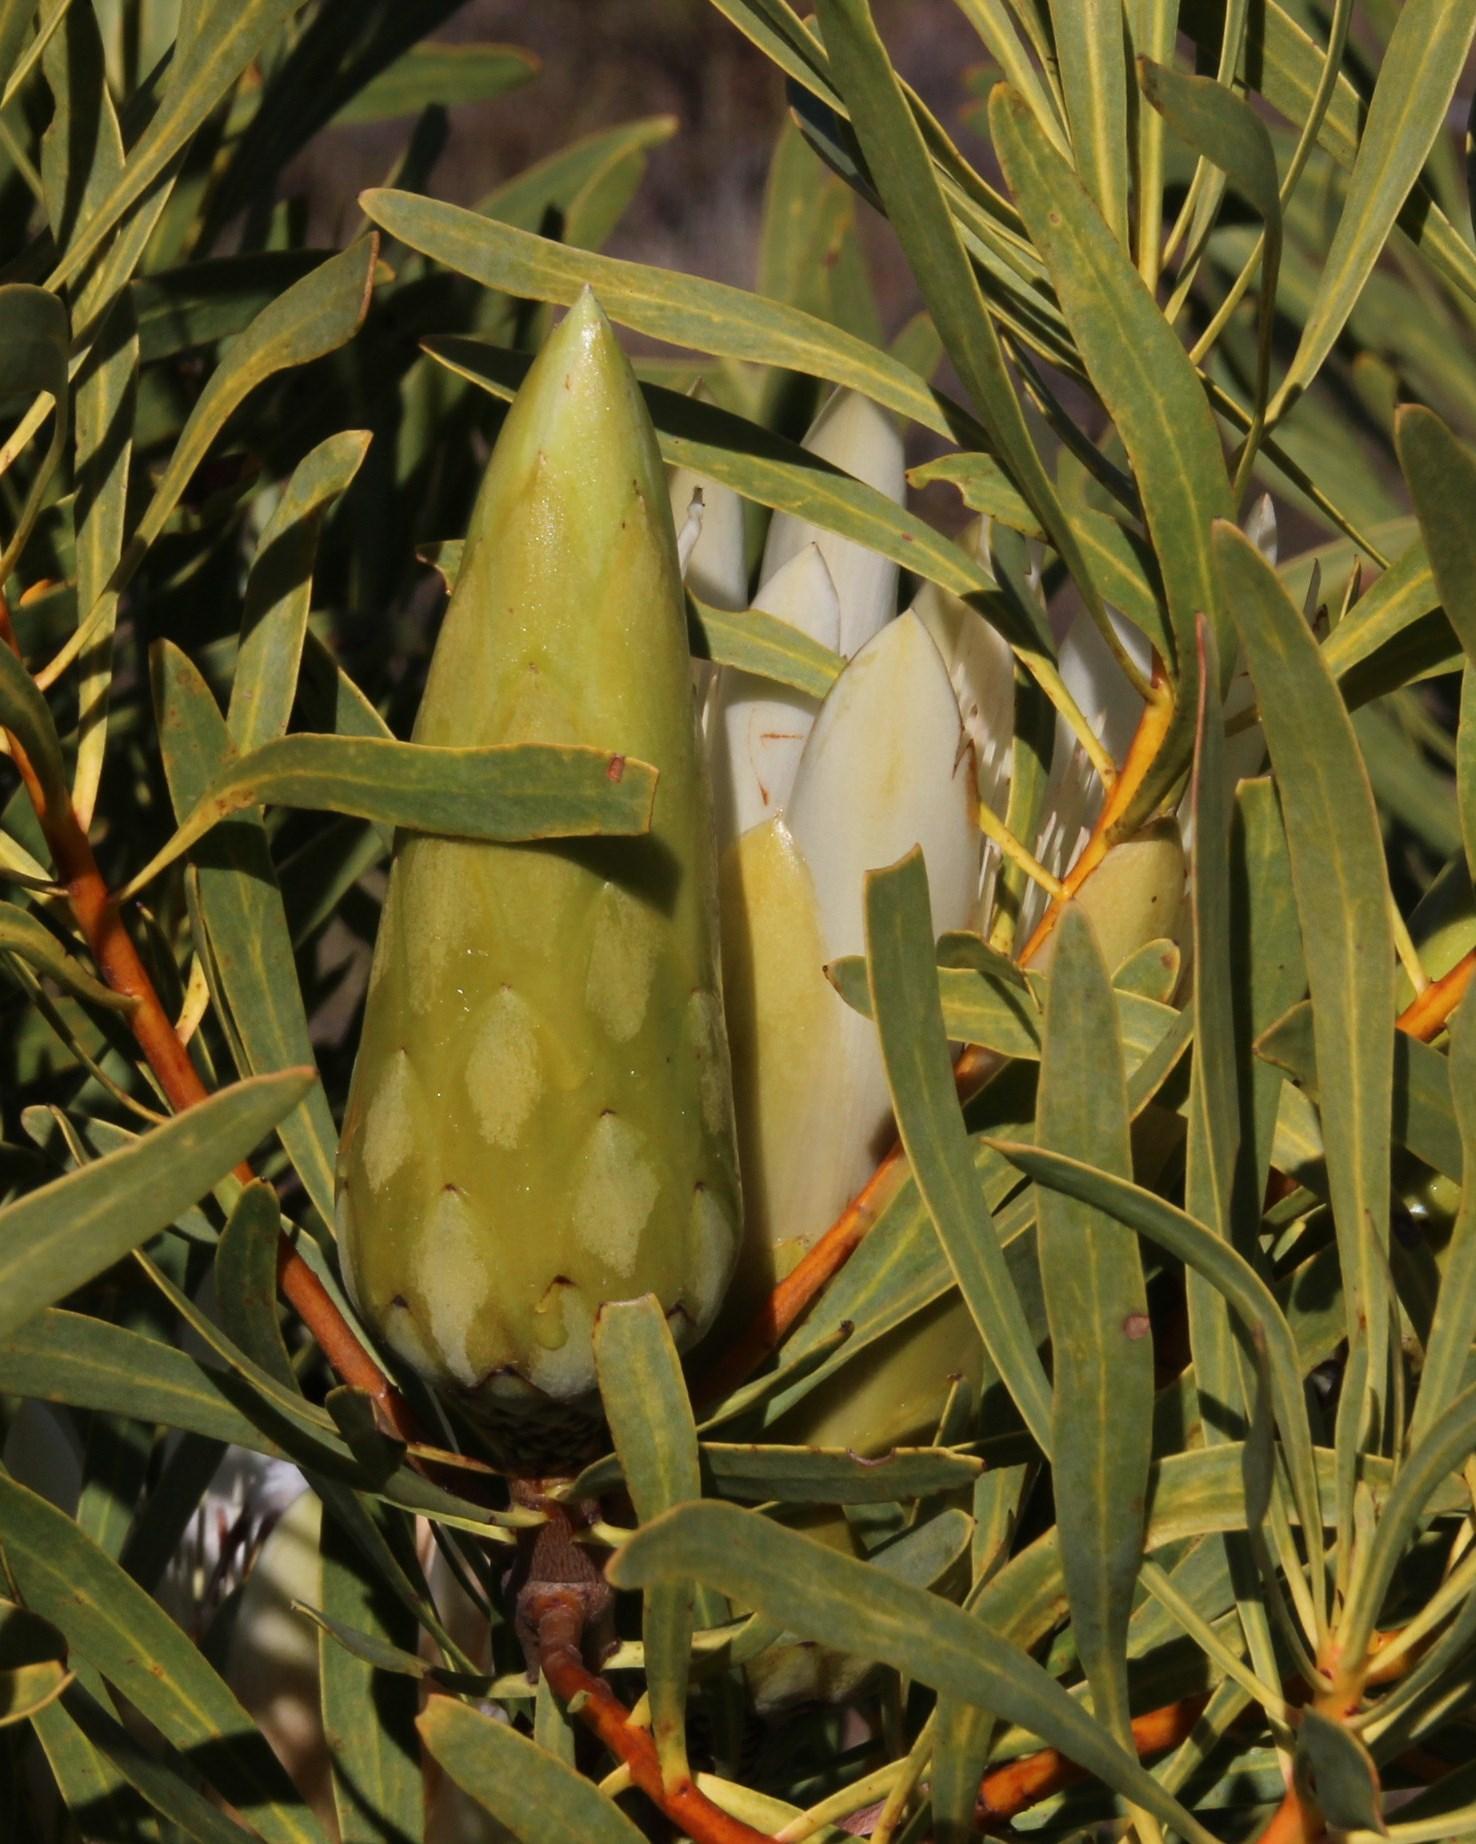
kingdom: Plantae
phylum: Tracheophyta
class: Magnoliopsida
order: Proteales
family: Proteaceae
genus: Protea
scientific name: Protea repens
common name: Sugarbush
